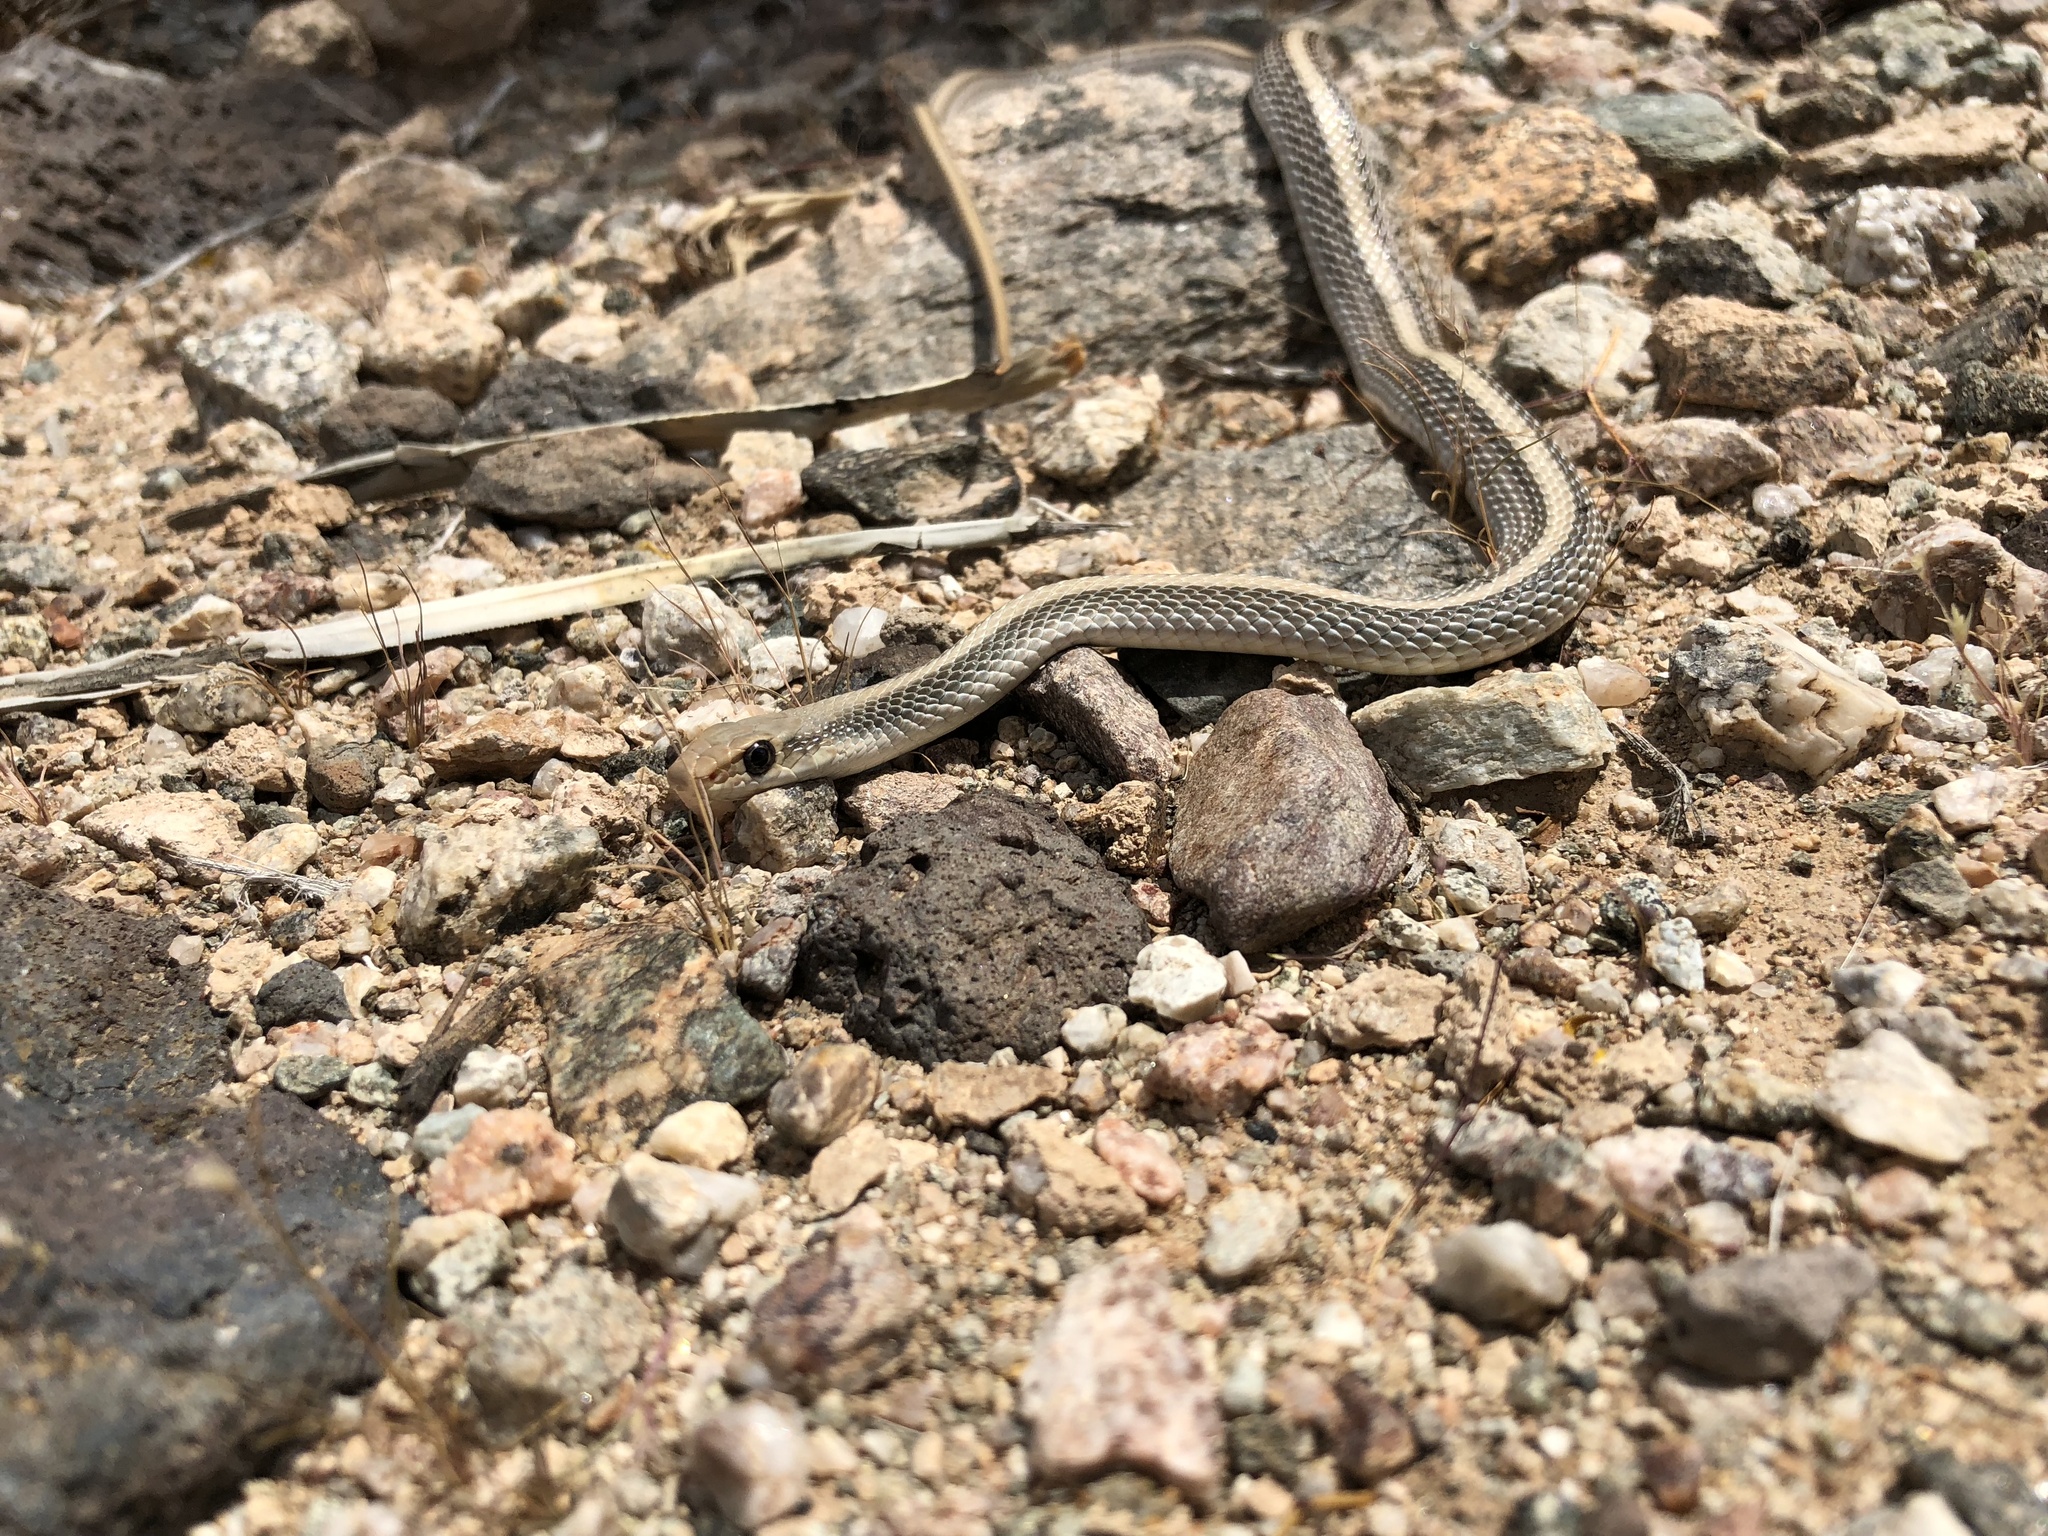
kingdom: Animalia
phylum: Chordata
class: Squamata
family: Colubridae
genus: Salvadora
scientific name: Salvadora hexalepis
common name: Western patchnose snake
